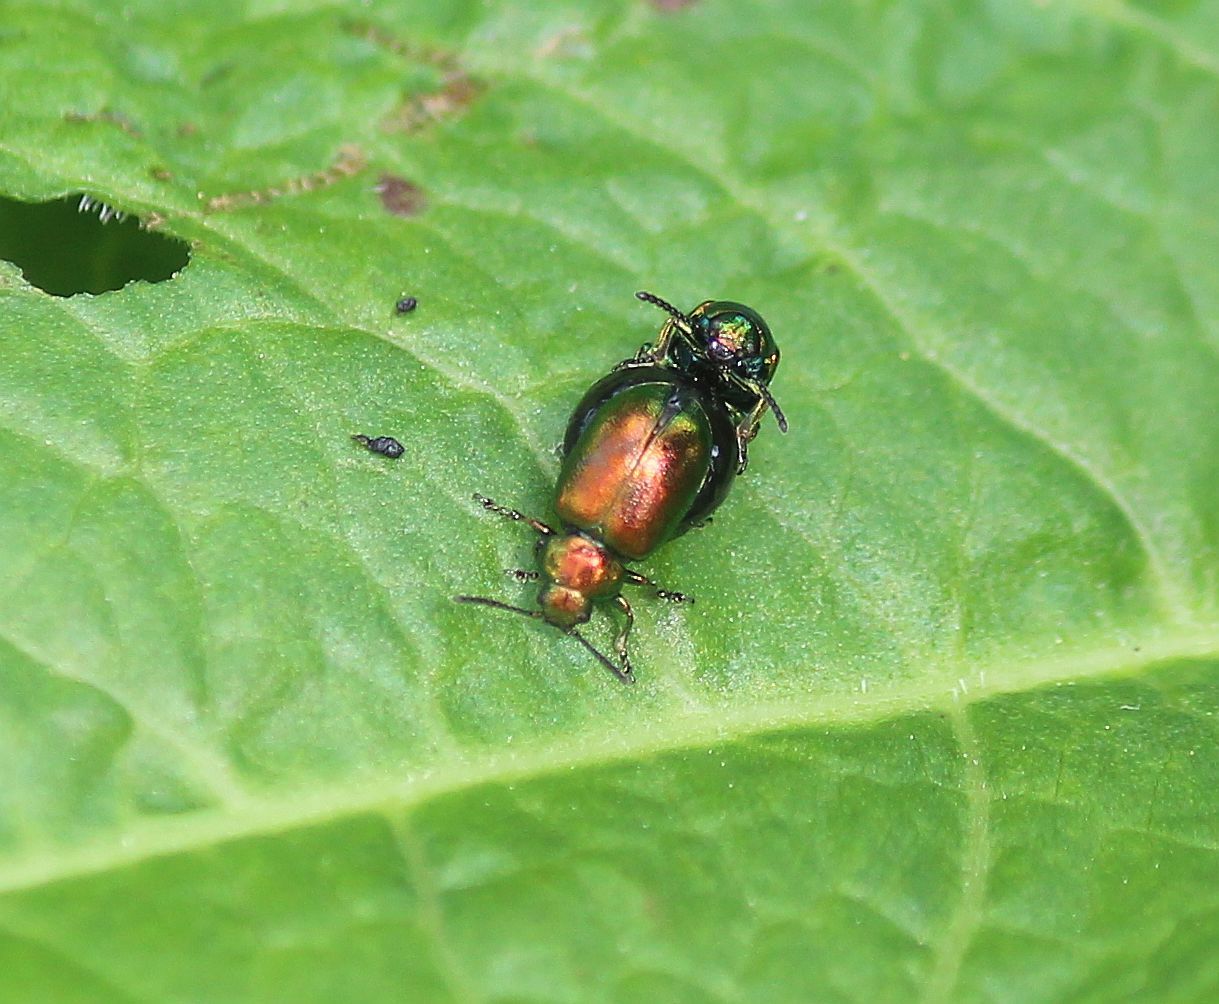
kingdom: Animalia
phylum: Arthropoda
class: Insecta
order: Coleoptera
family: Chrysomelidae
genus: Gastrophysa
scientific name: Gastrophysa viridula
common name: Green dock beetle
